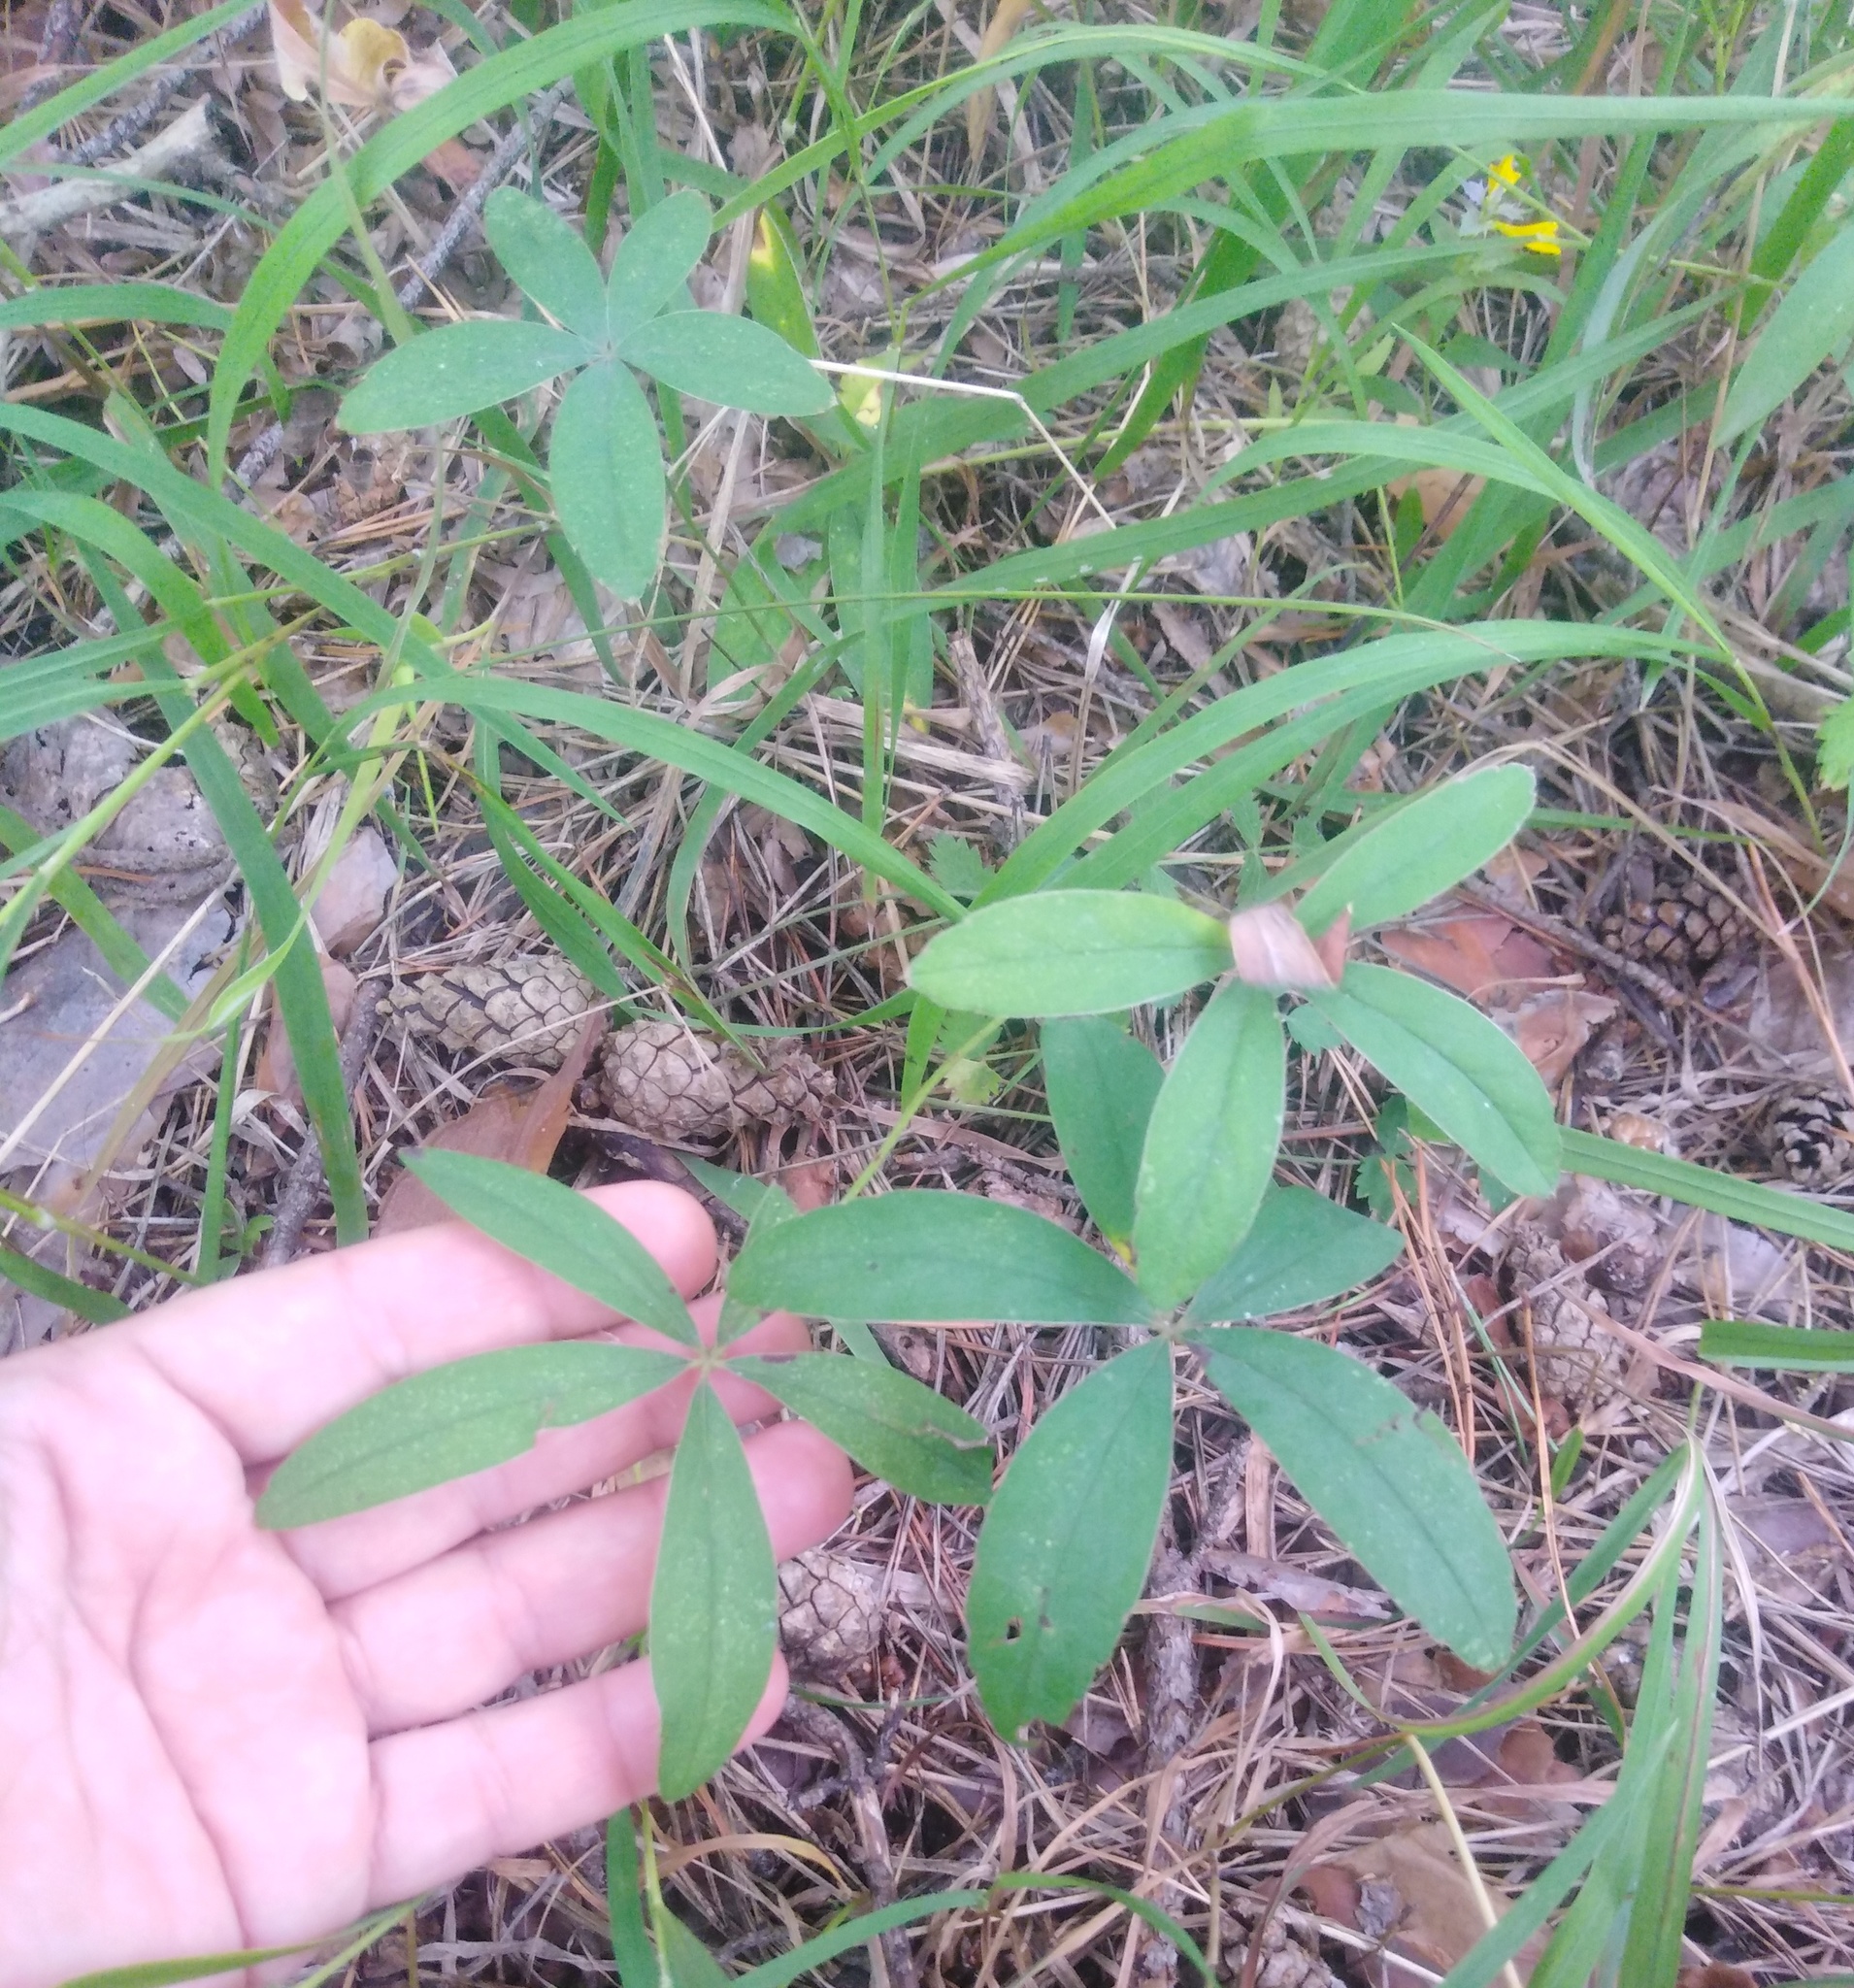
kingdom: Plantae
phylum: Tracheophyta
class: Magnoliopsida
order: Rosales
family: Rosaceae
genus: Potentilla
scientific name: Potentilla alba
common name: White cinquefoil
